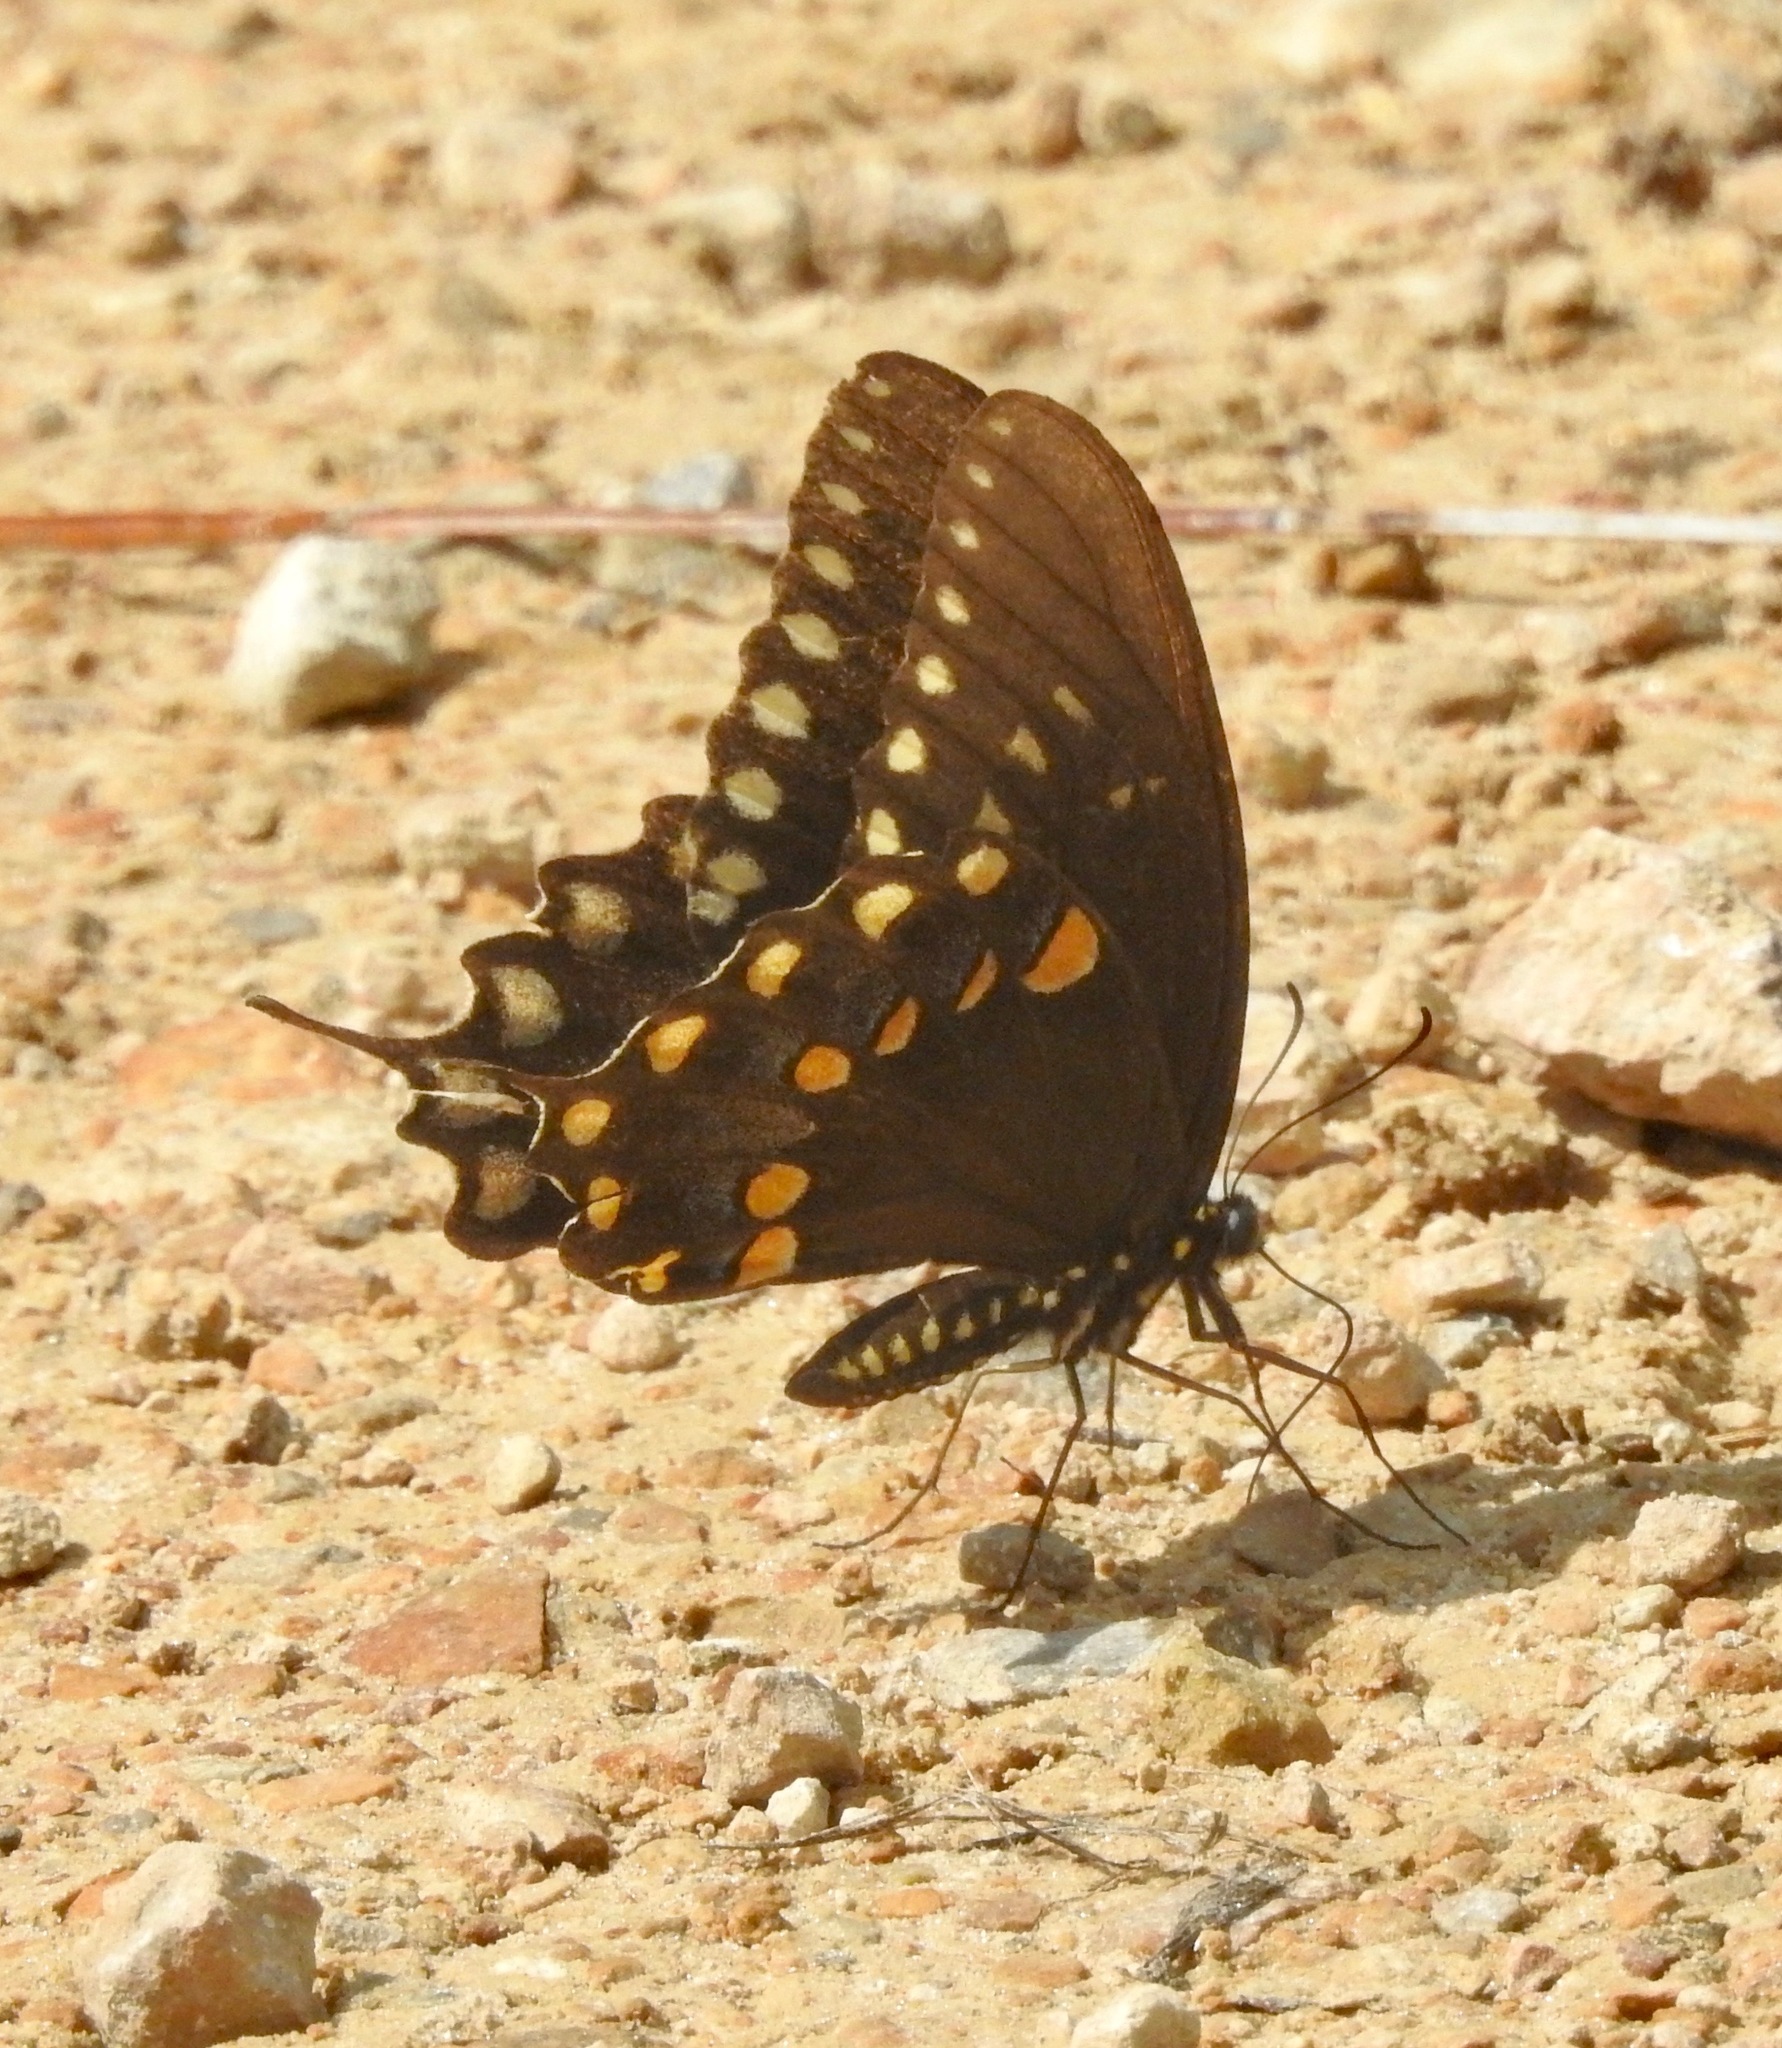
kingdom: Animalia
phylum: Arthropoda
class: Insecta
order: Lepidoptera
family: Papilionidae
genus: Papilio
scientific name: Papilio troilus
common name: Spicebush swallowtail
